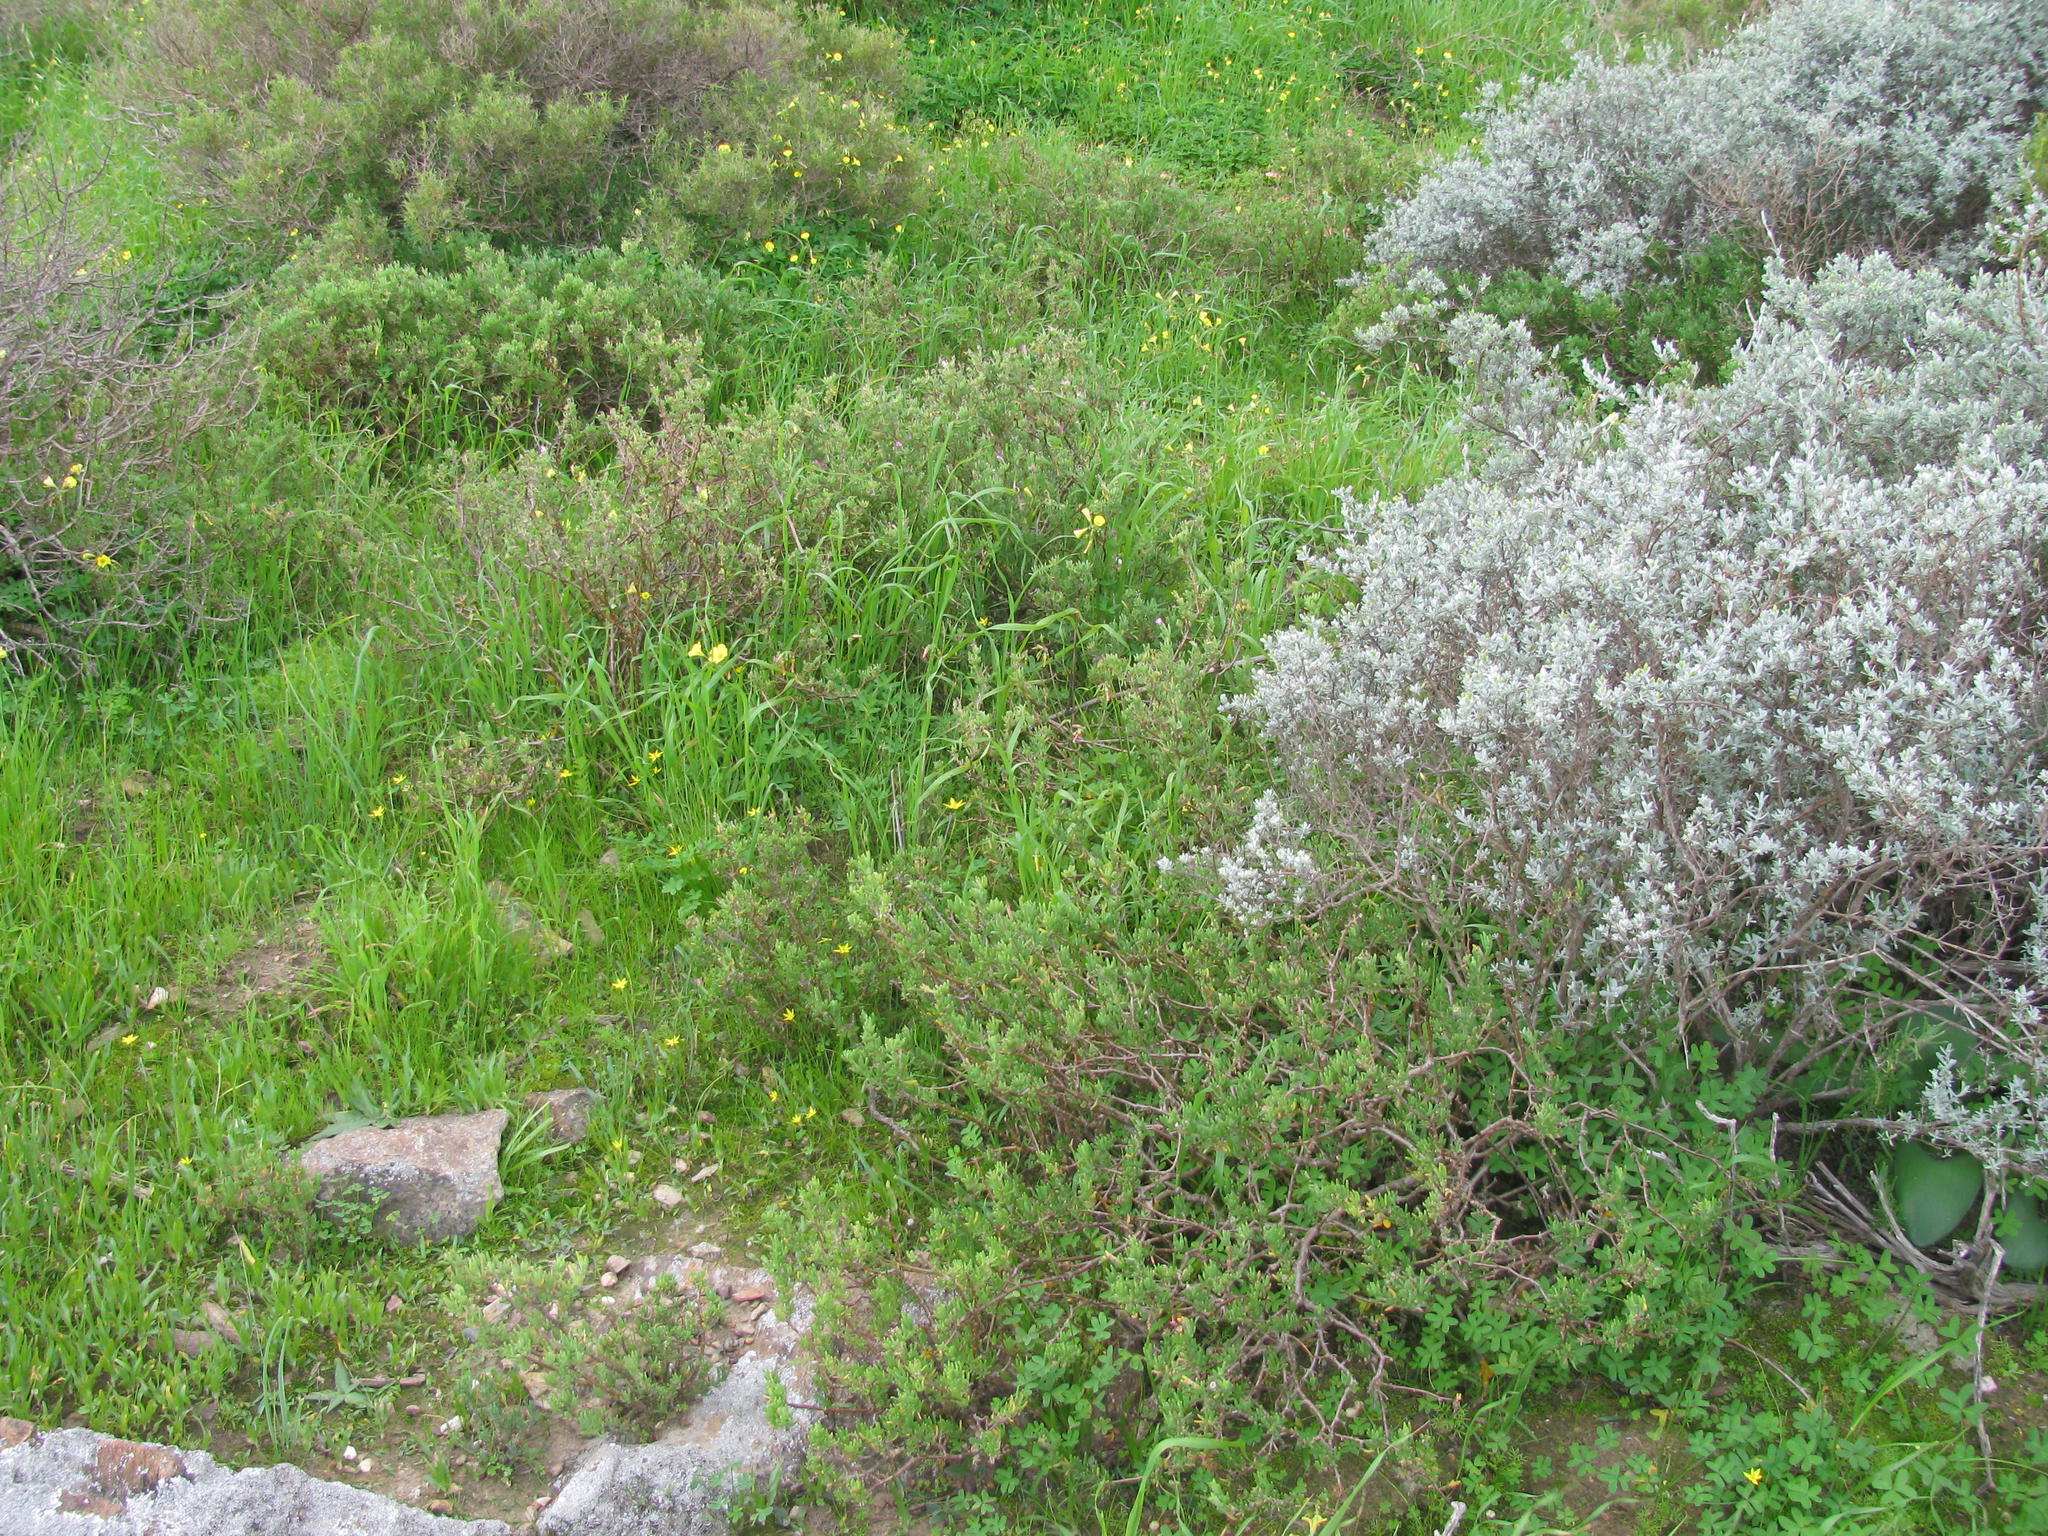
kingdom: Plantae
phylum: Tracheophyta
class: Magnoliopsida
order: Caryophyllales
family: Aizoaceae
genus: Delosperma
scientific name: Delosperma pageanum
